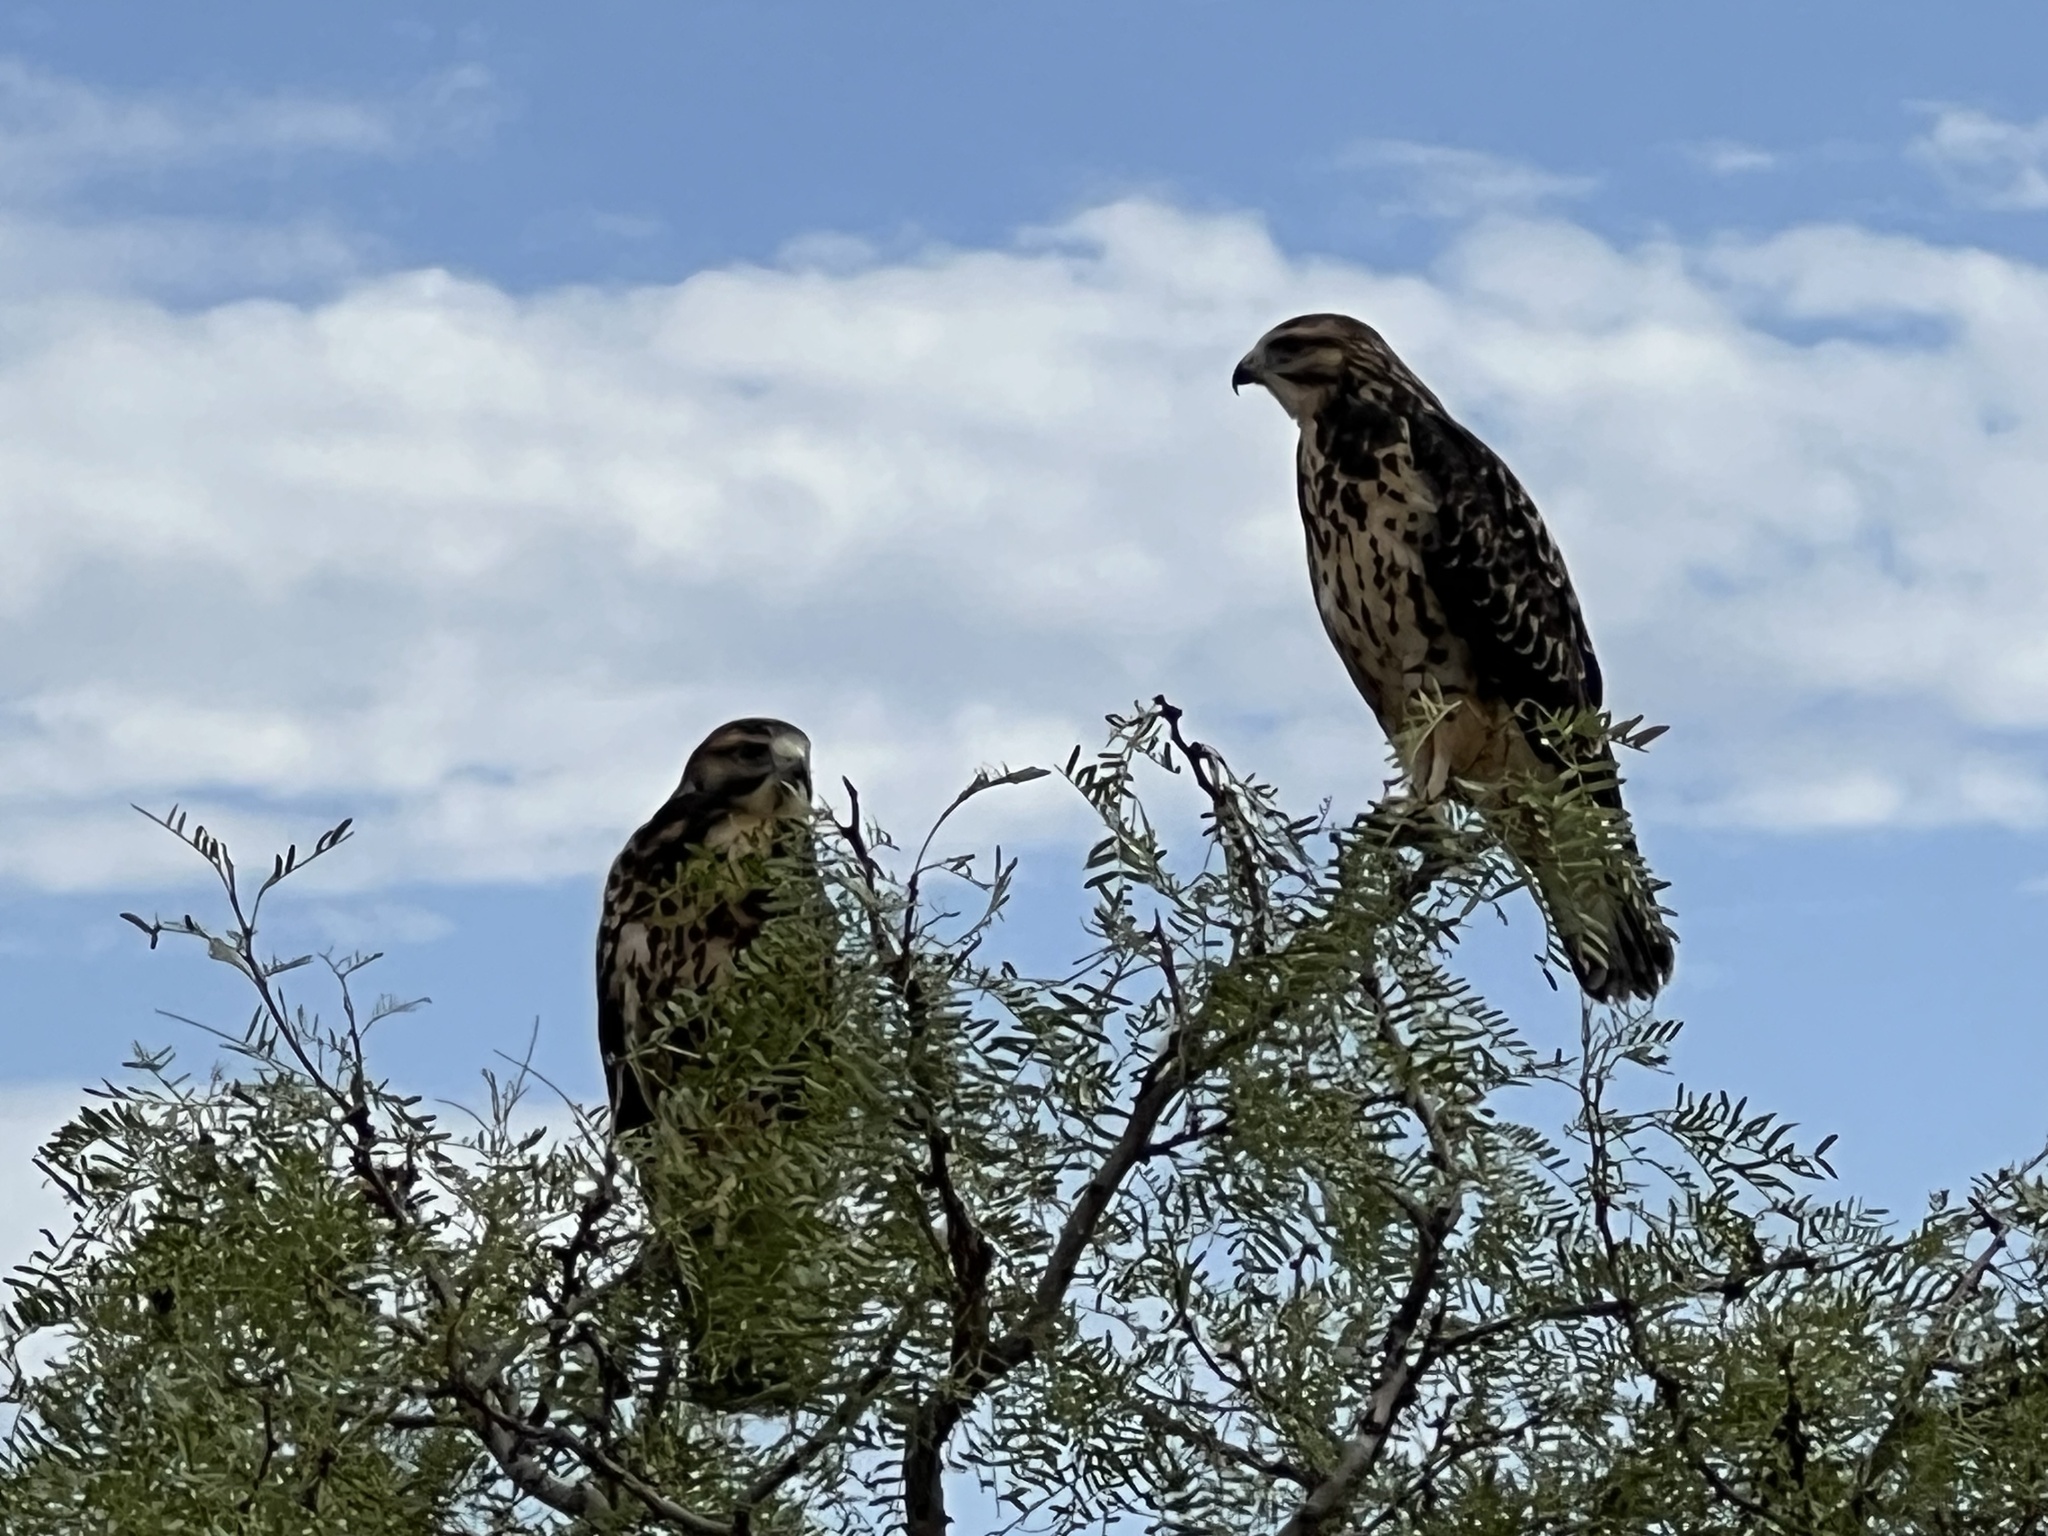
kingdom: Animalia
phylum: Chordata
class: Aves
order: Accipitriformes
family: Accipitridae
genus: Buteo
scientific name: Buteo swainsoni
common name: Swainson's hawk
